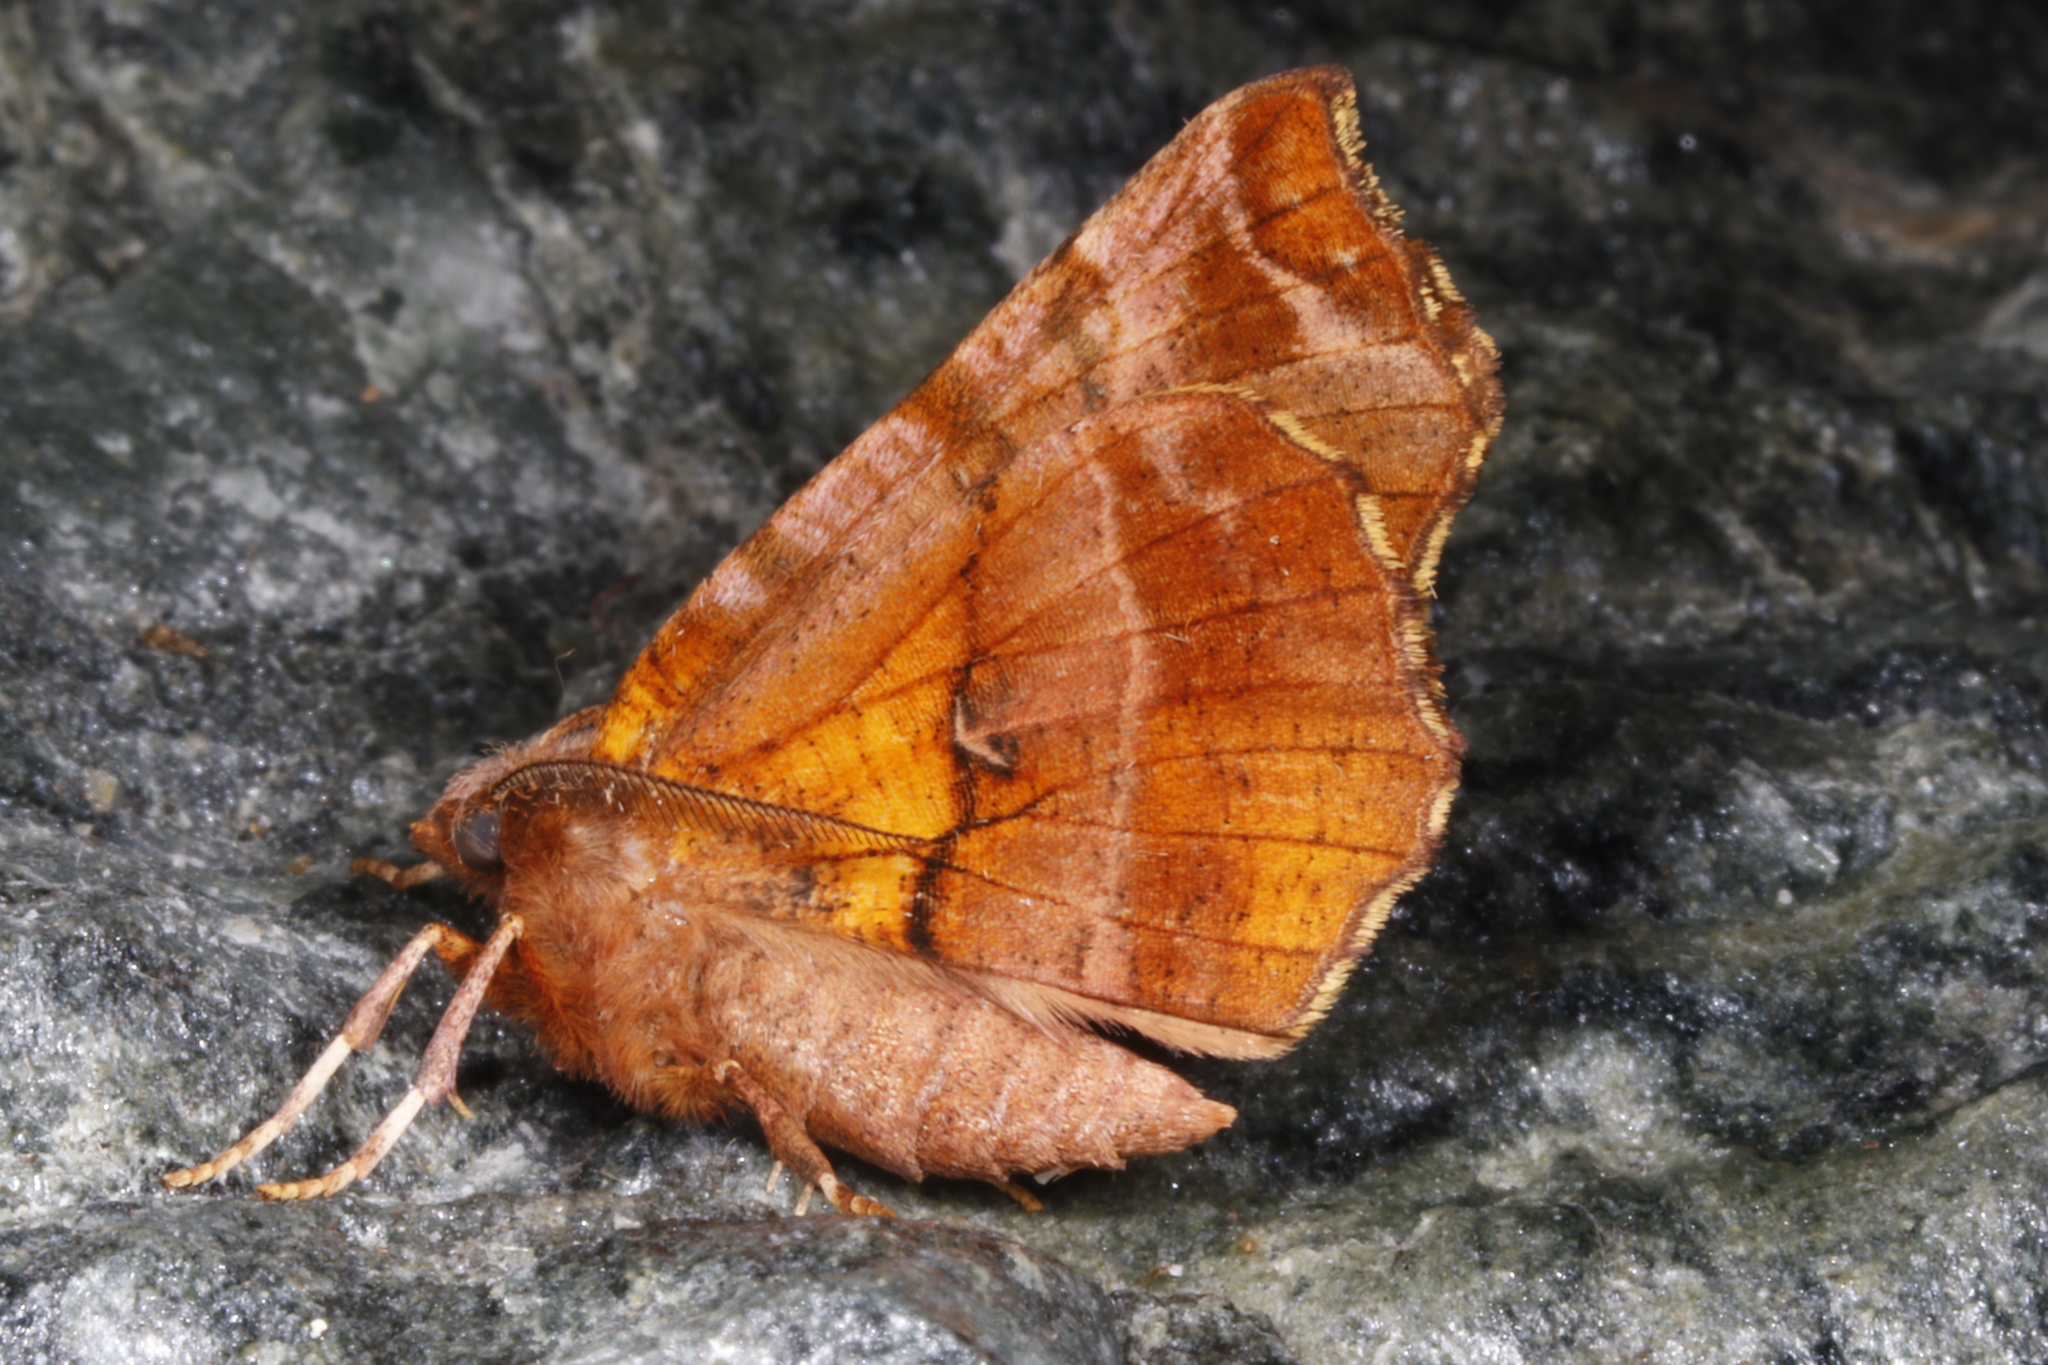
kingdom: Animalia
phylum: Arthropoda
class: Insecta
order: Lepidoptera
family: Geometridae
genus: Selenia
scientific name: Selenia dentaria
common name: Early thorn
